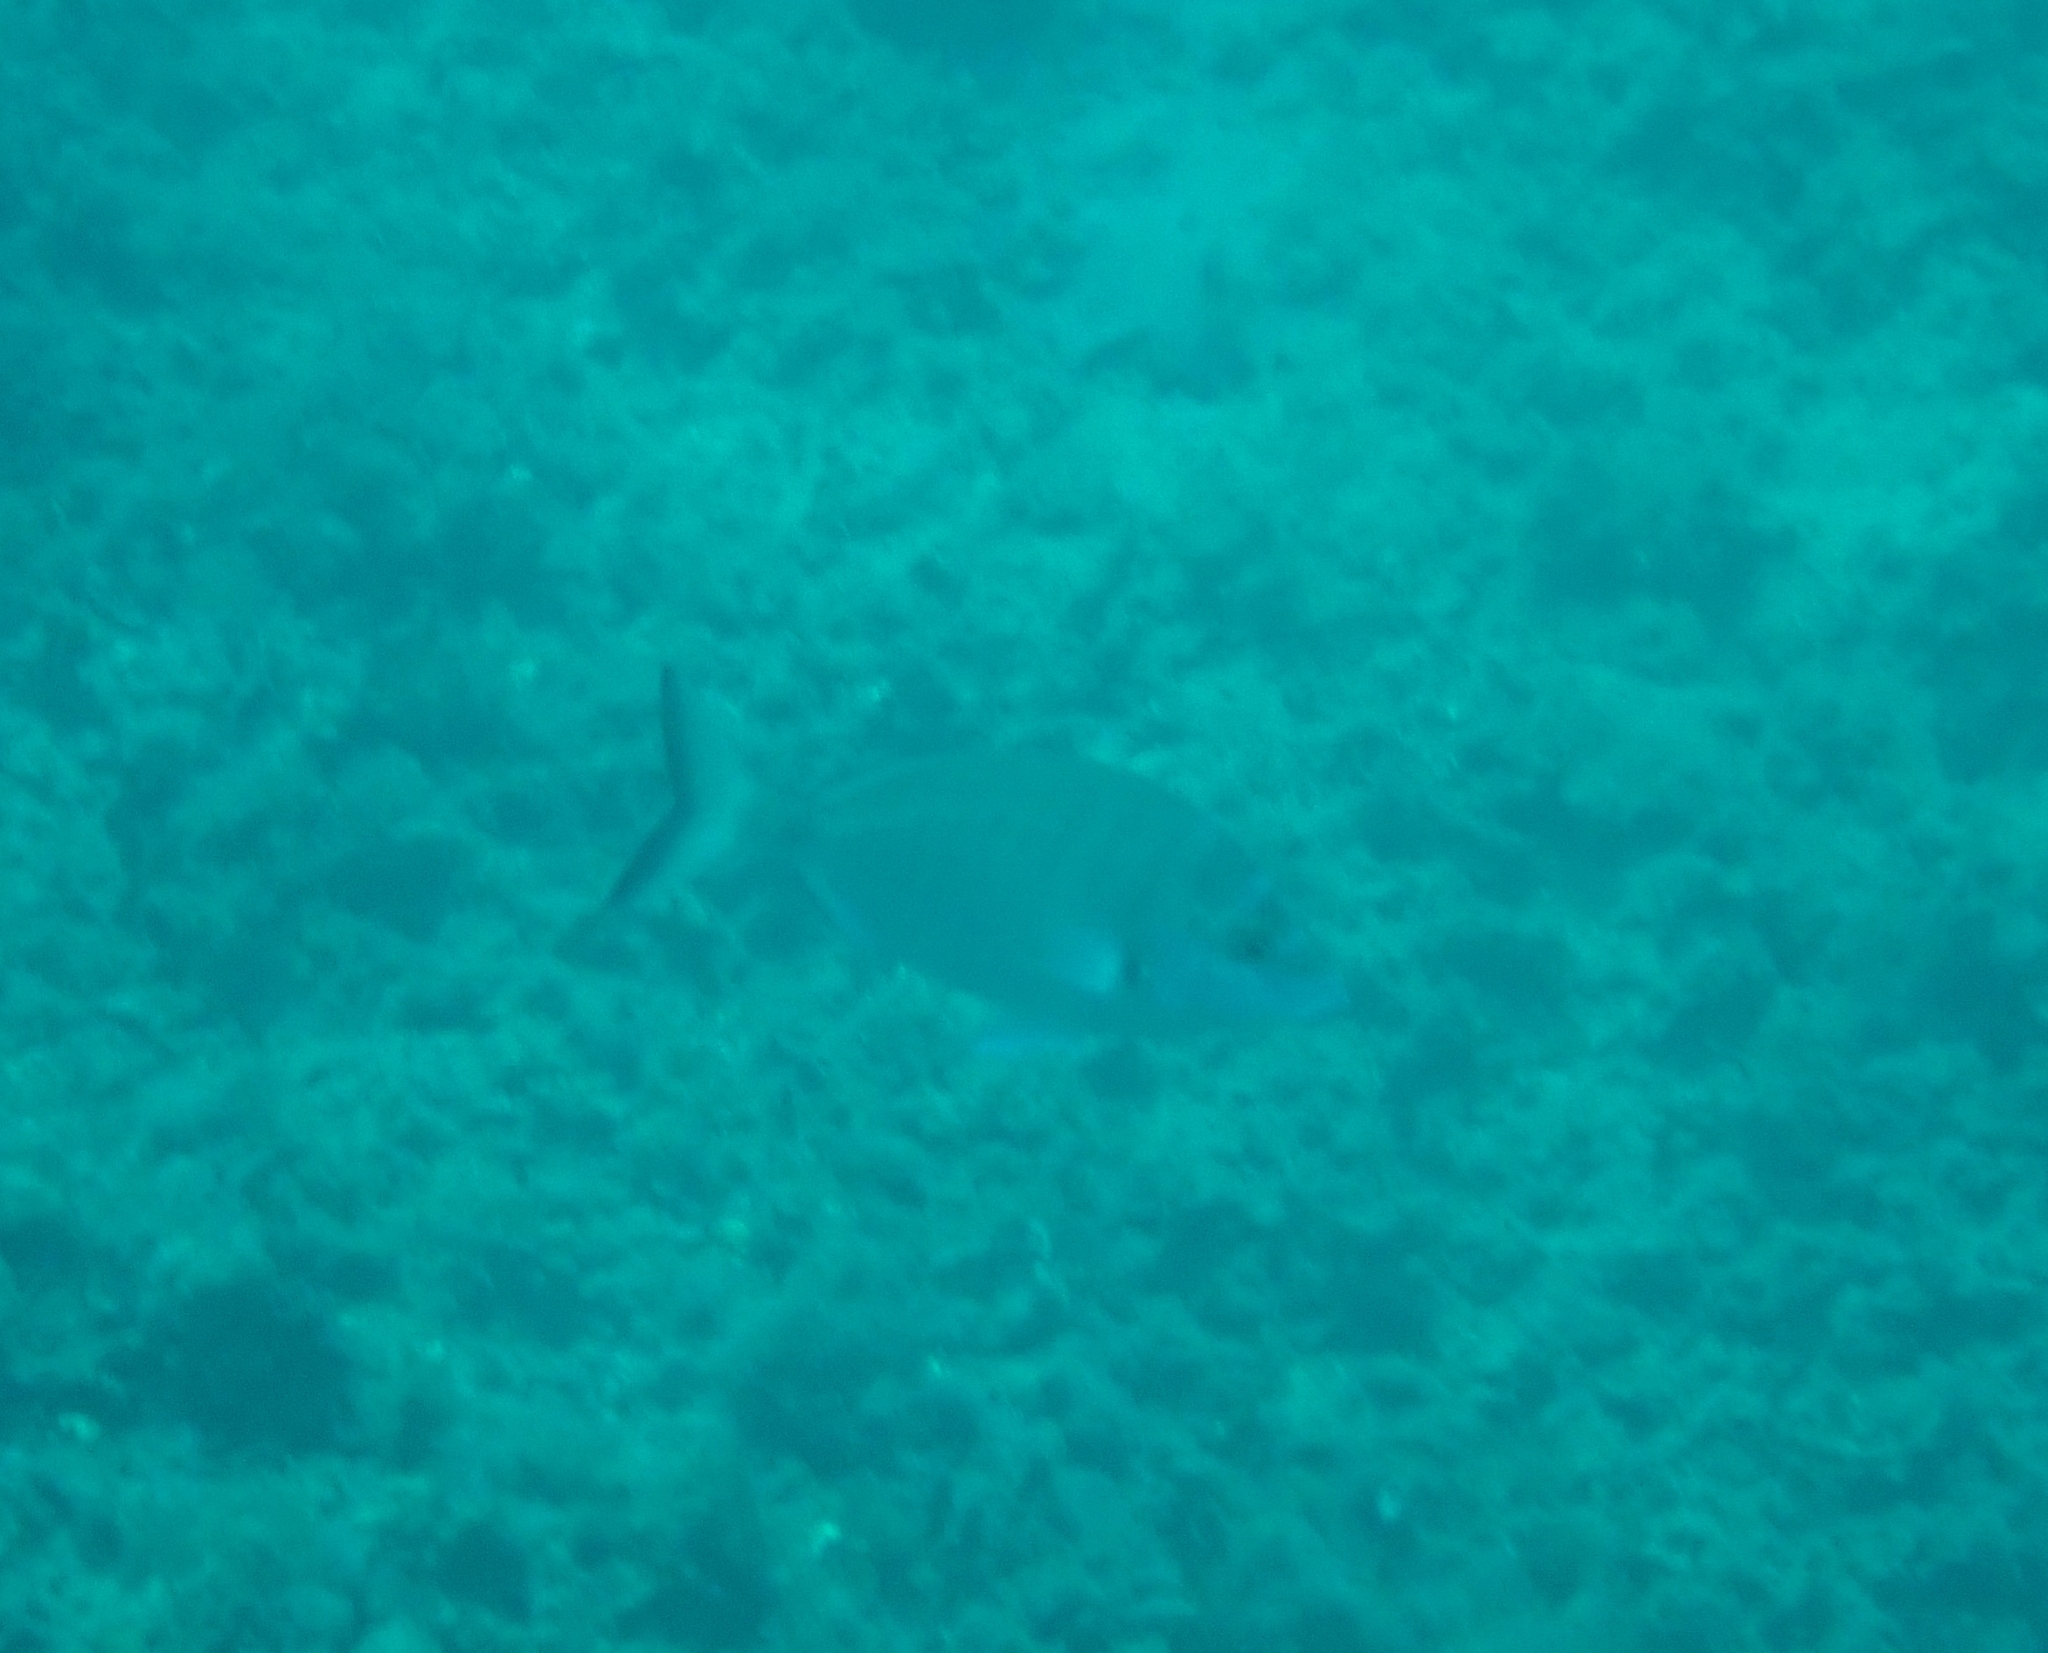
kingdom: Animalia
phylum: Chordata
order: Perciformes
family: Sparidae
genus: Diplodus
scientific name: Diplodus puntazzo
